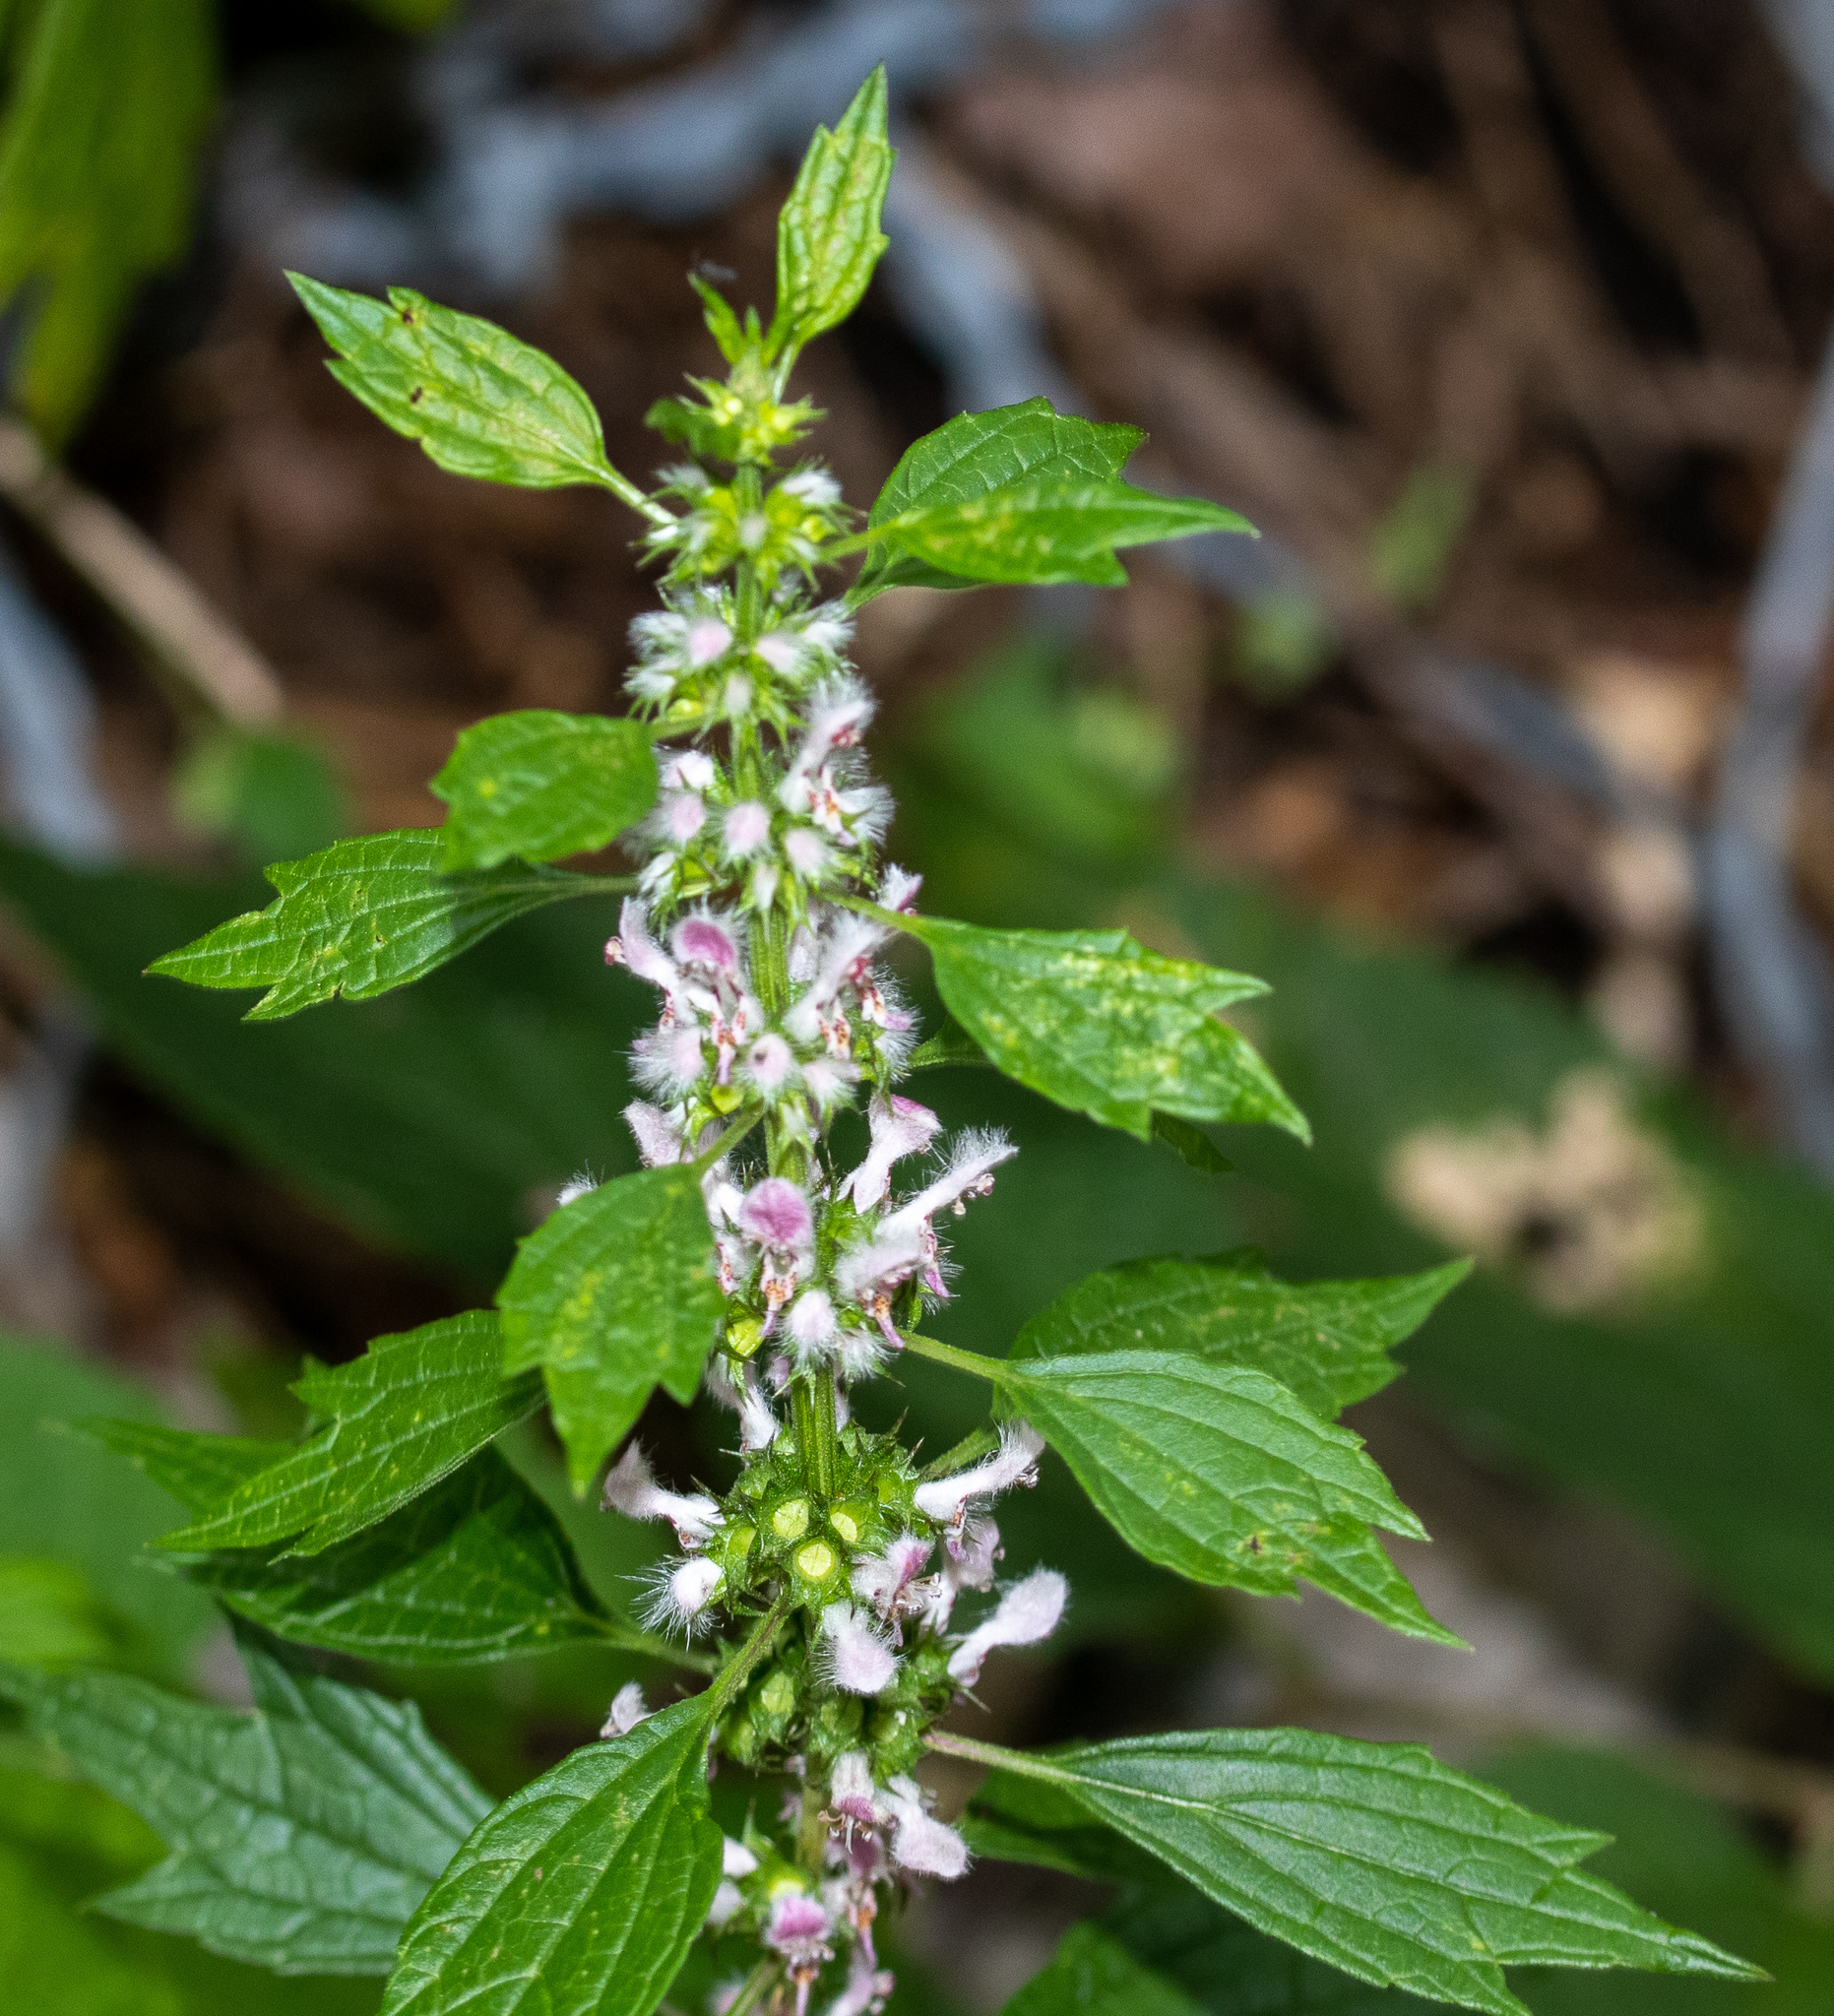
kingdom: Plantae
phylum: Tracheophyta
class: Magnoliopsida
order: Lamiales
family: Lamiaceae
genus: Leonurus
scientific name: Leonurus cardiaca
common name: Motherwort
